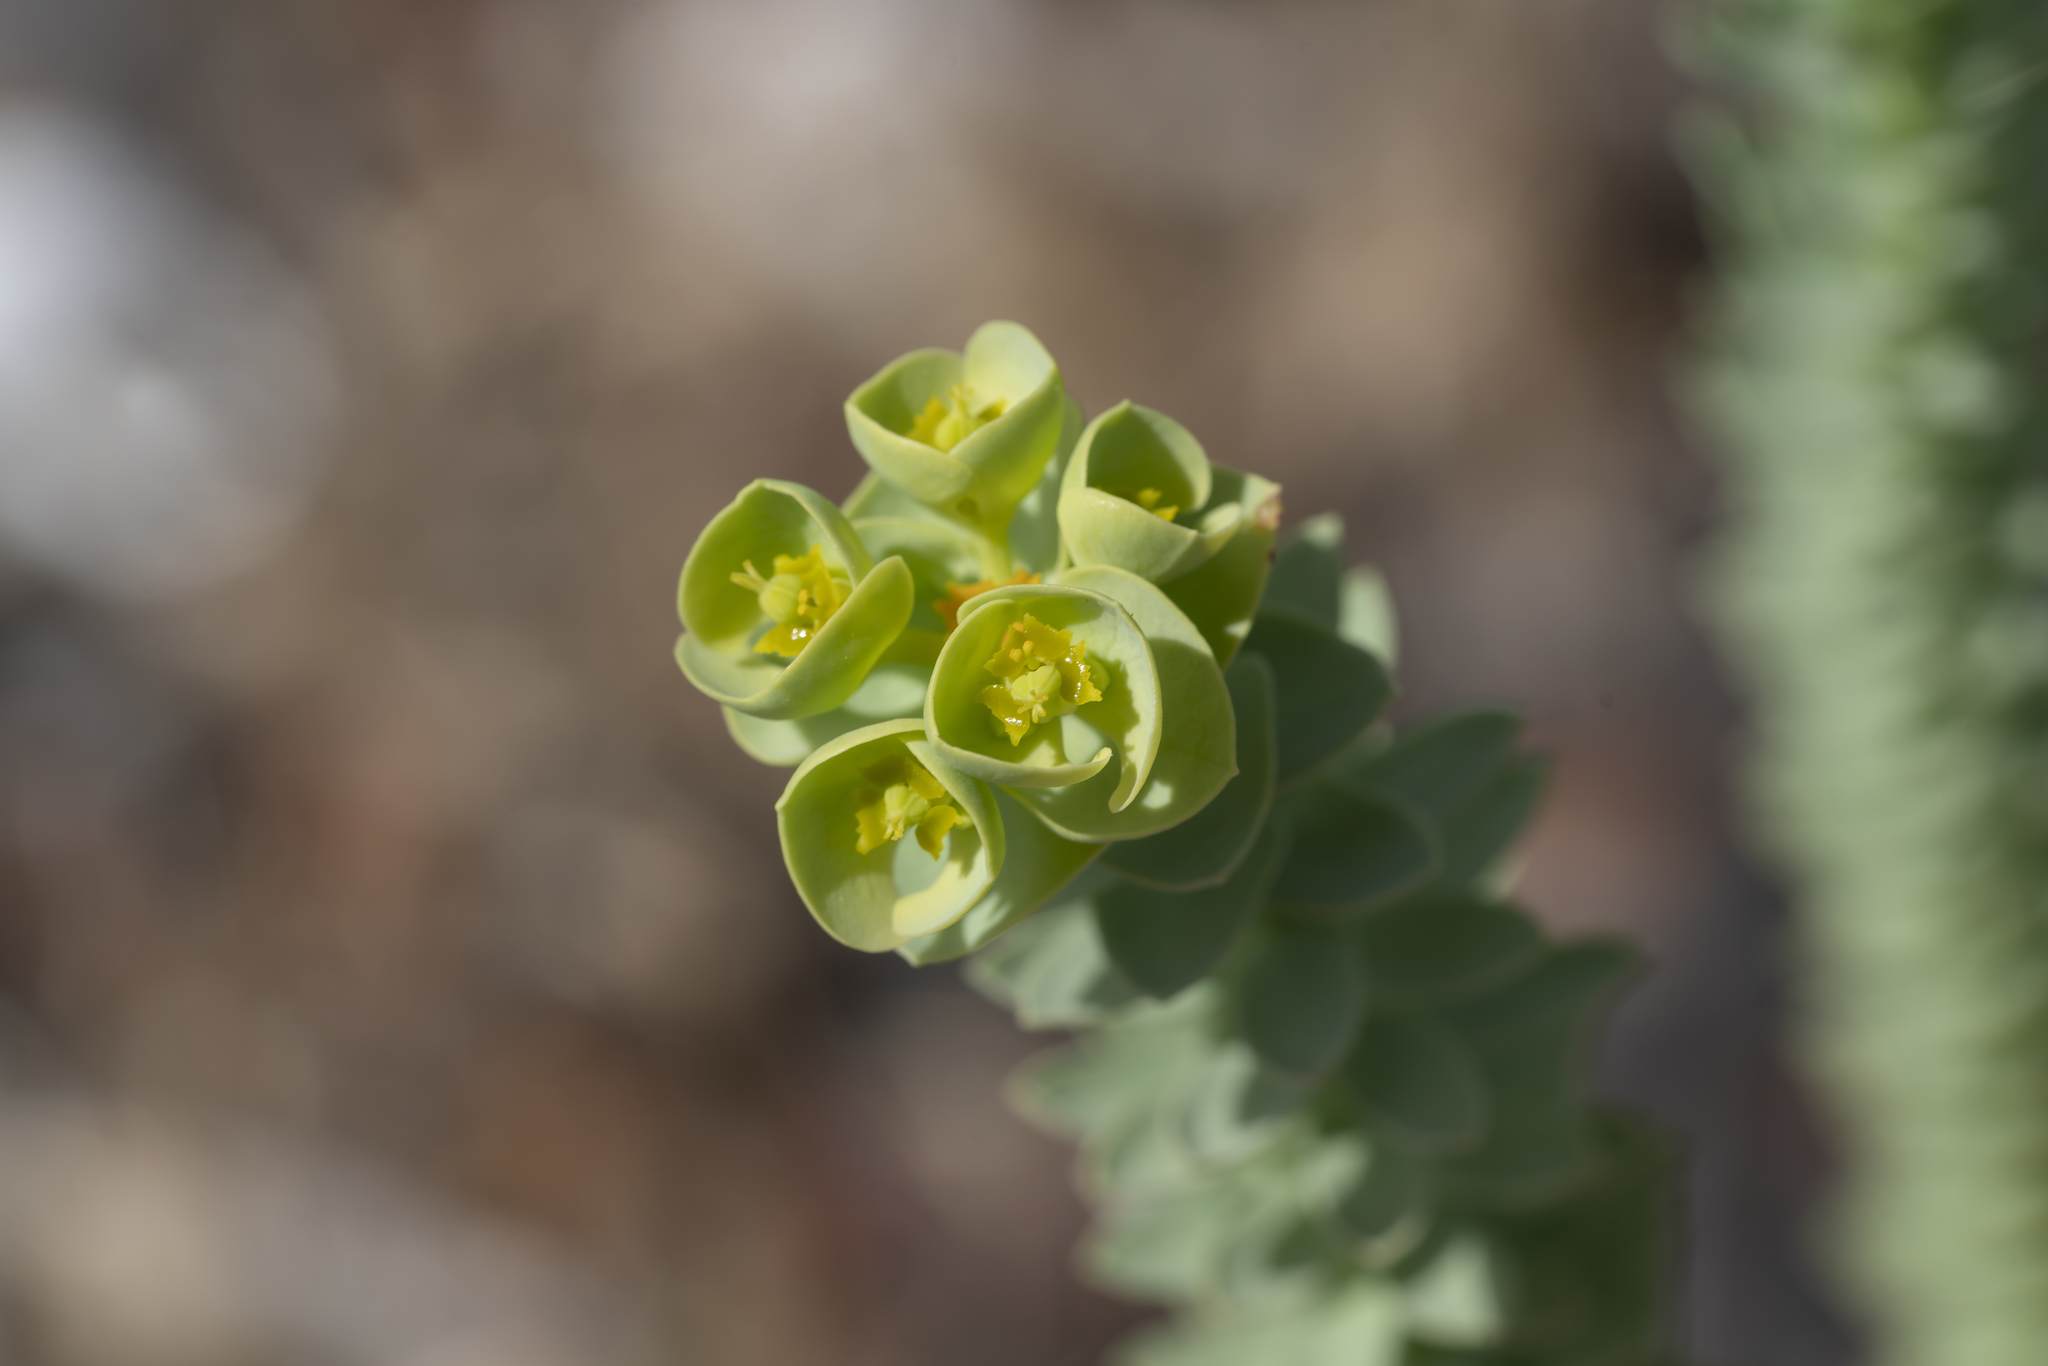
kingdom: Plantae
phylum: Tracheophyta
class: Magnoliopsida
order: Malpighiales
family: Euphorbiaceae
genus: Euphorbia
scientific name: Euphorbia paralias
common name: Sea spurge
